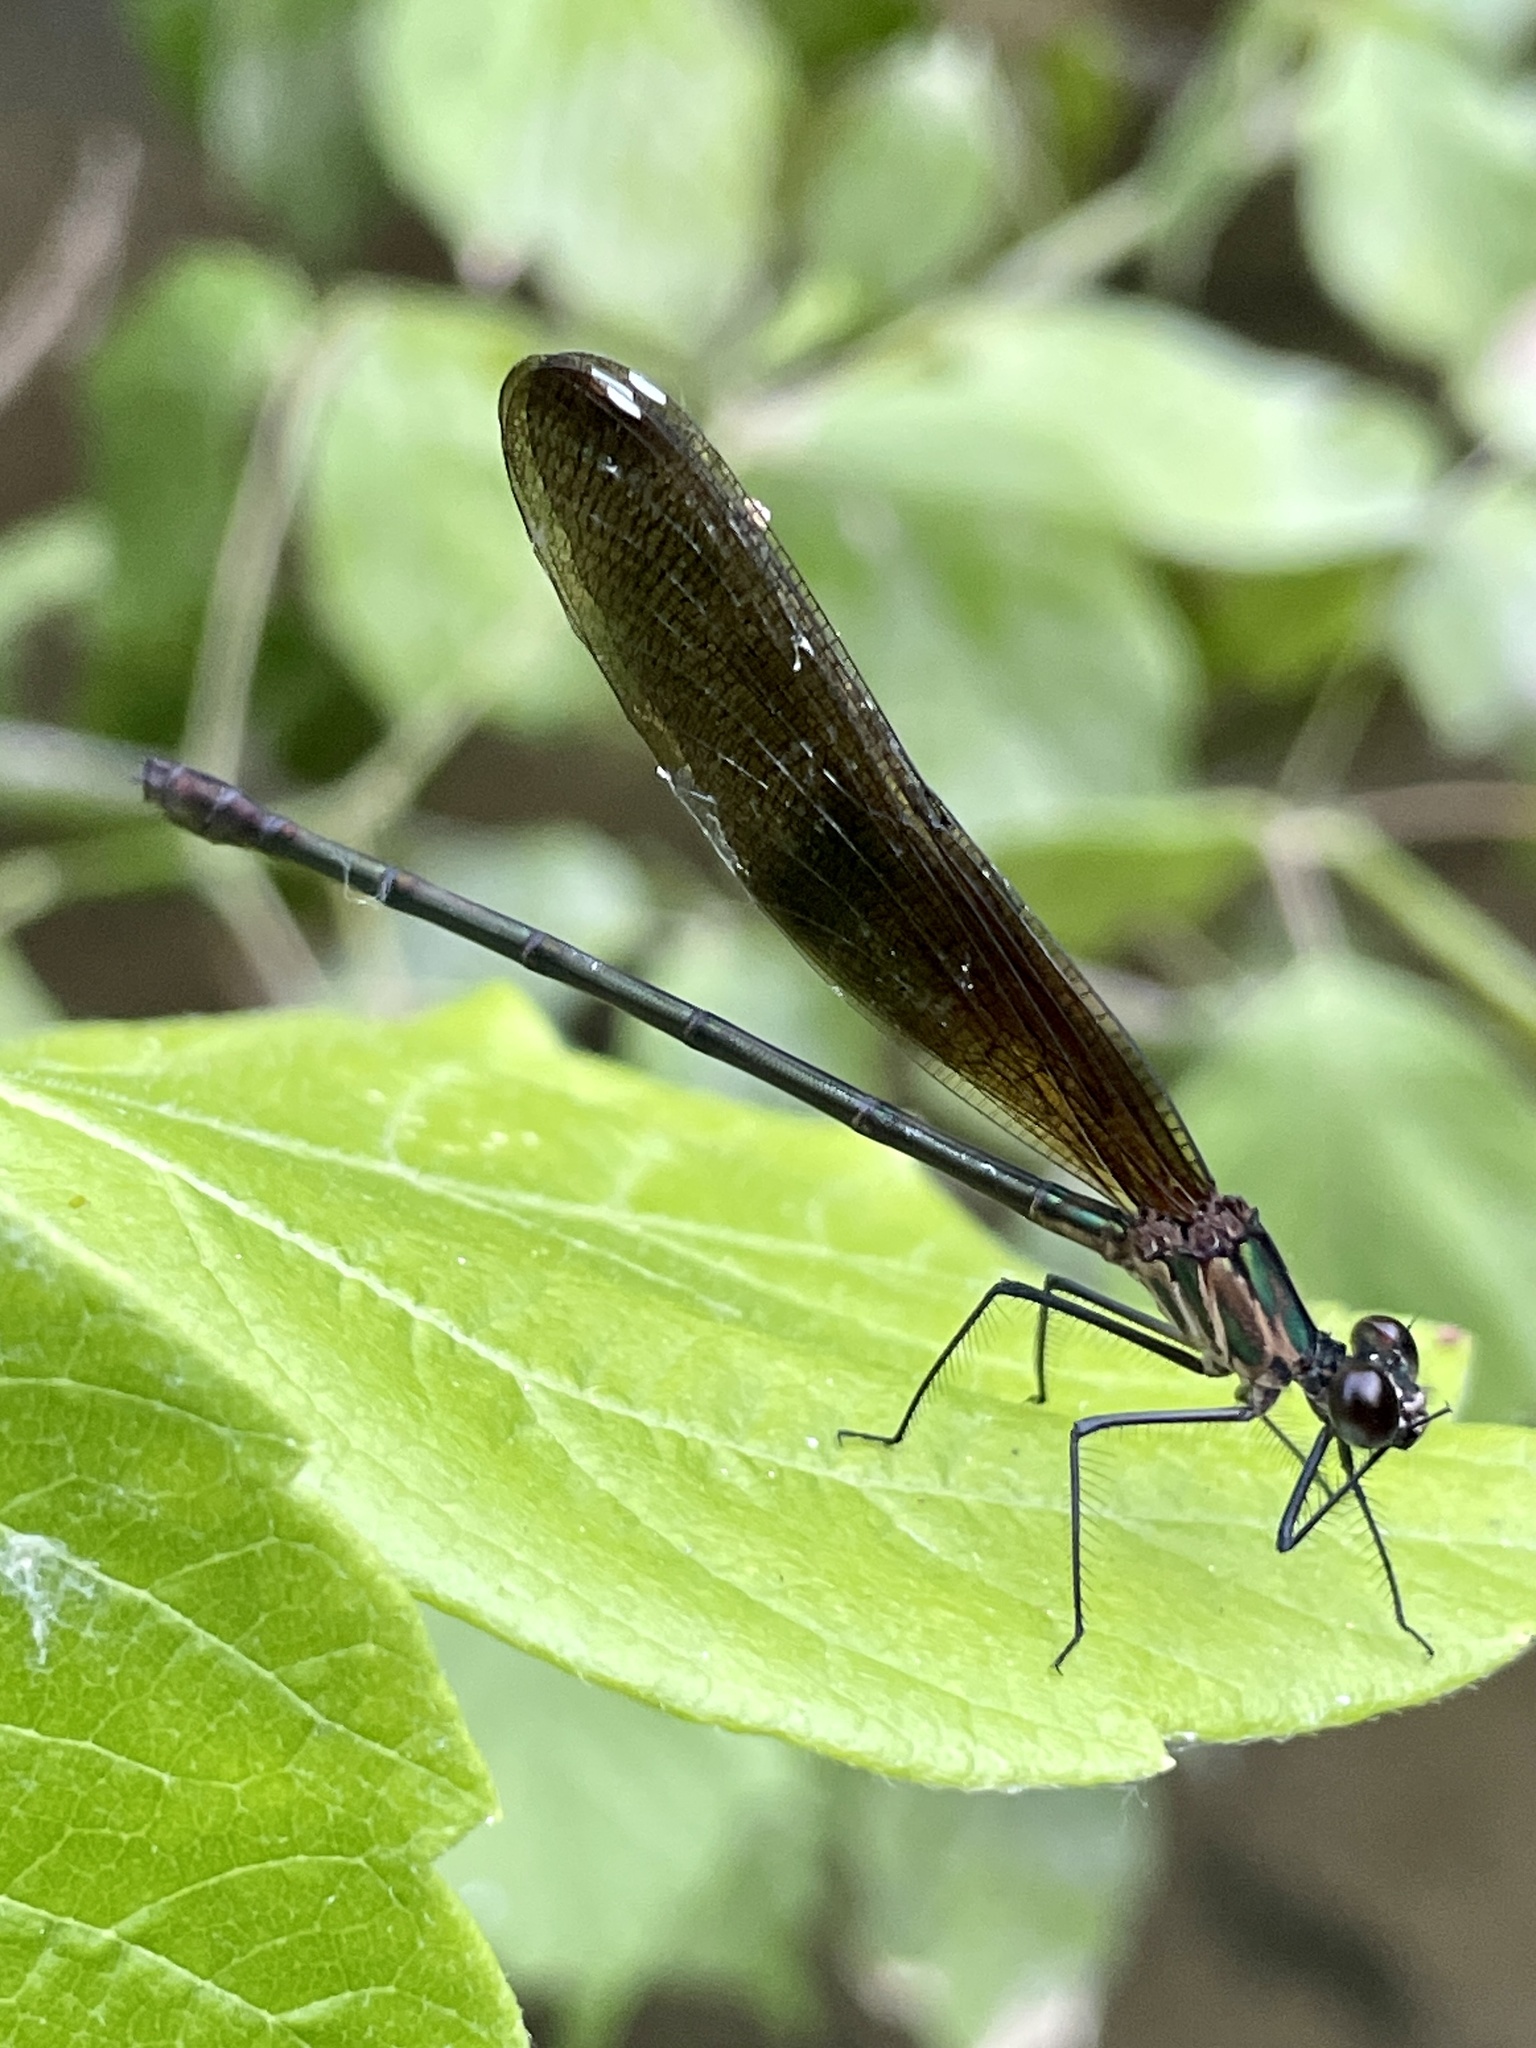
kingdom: Animalia
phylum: Arthropoda
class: Insecta
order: Odonata
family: Calopterygidae
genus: Hetaerina
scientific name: Hetaerina titia
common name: Smoky rubyspot
